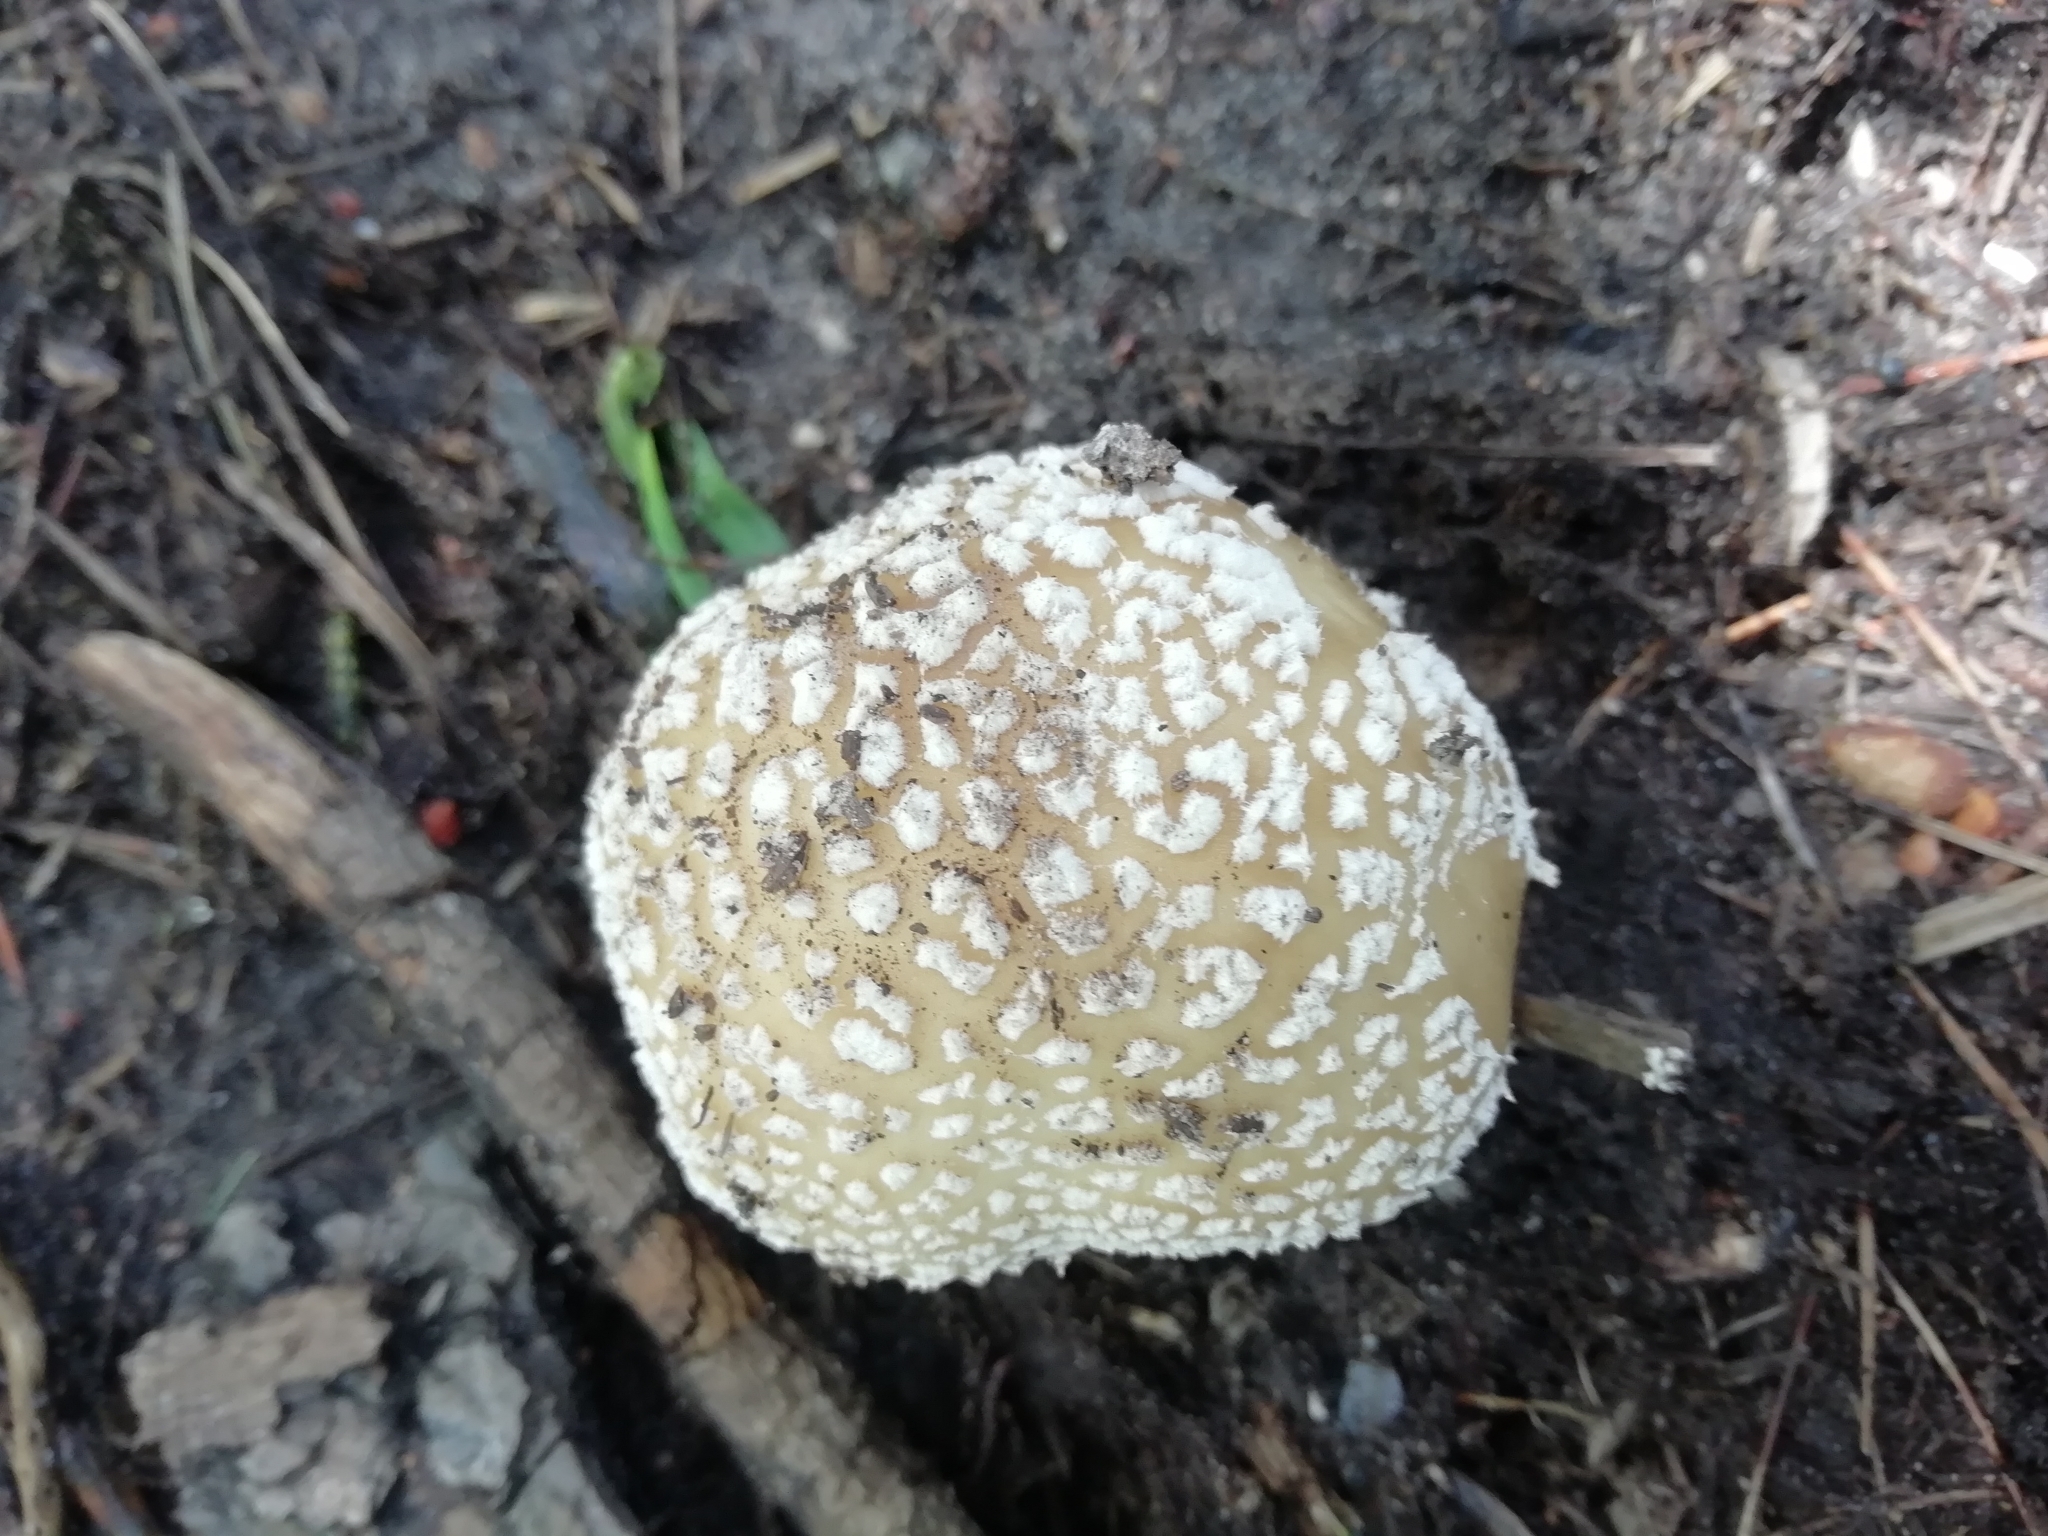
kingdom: Fungi
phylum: Basidiomycota
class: Agaricomycetes
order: Agaricales
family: Amanitaceae
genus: Amanita
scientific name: Amanita pantherina
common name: Panthercap
